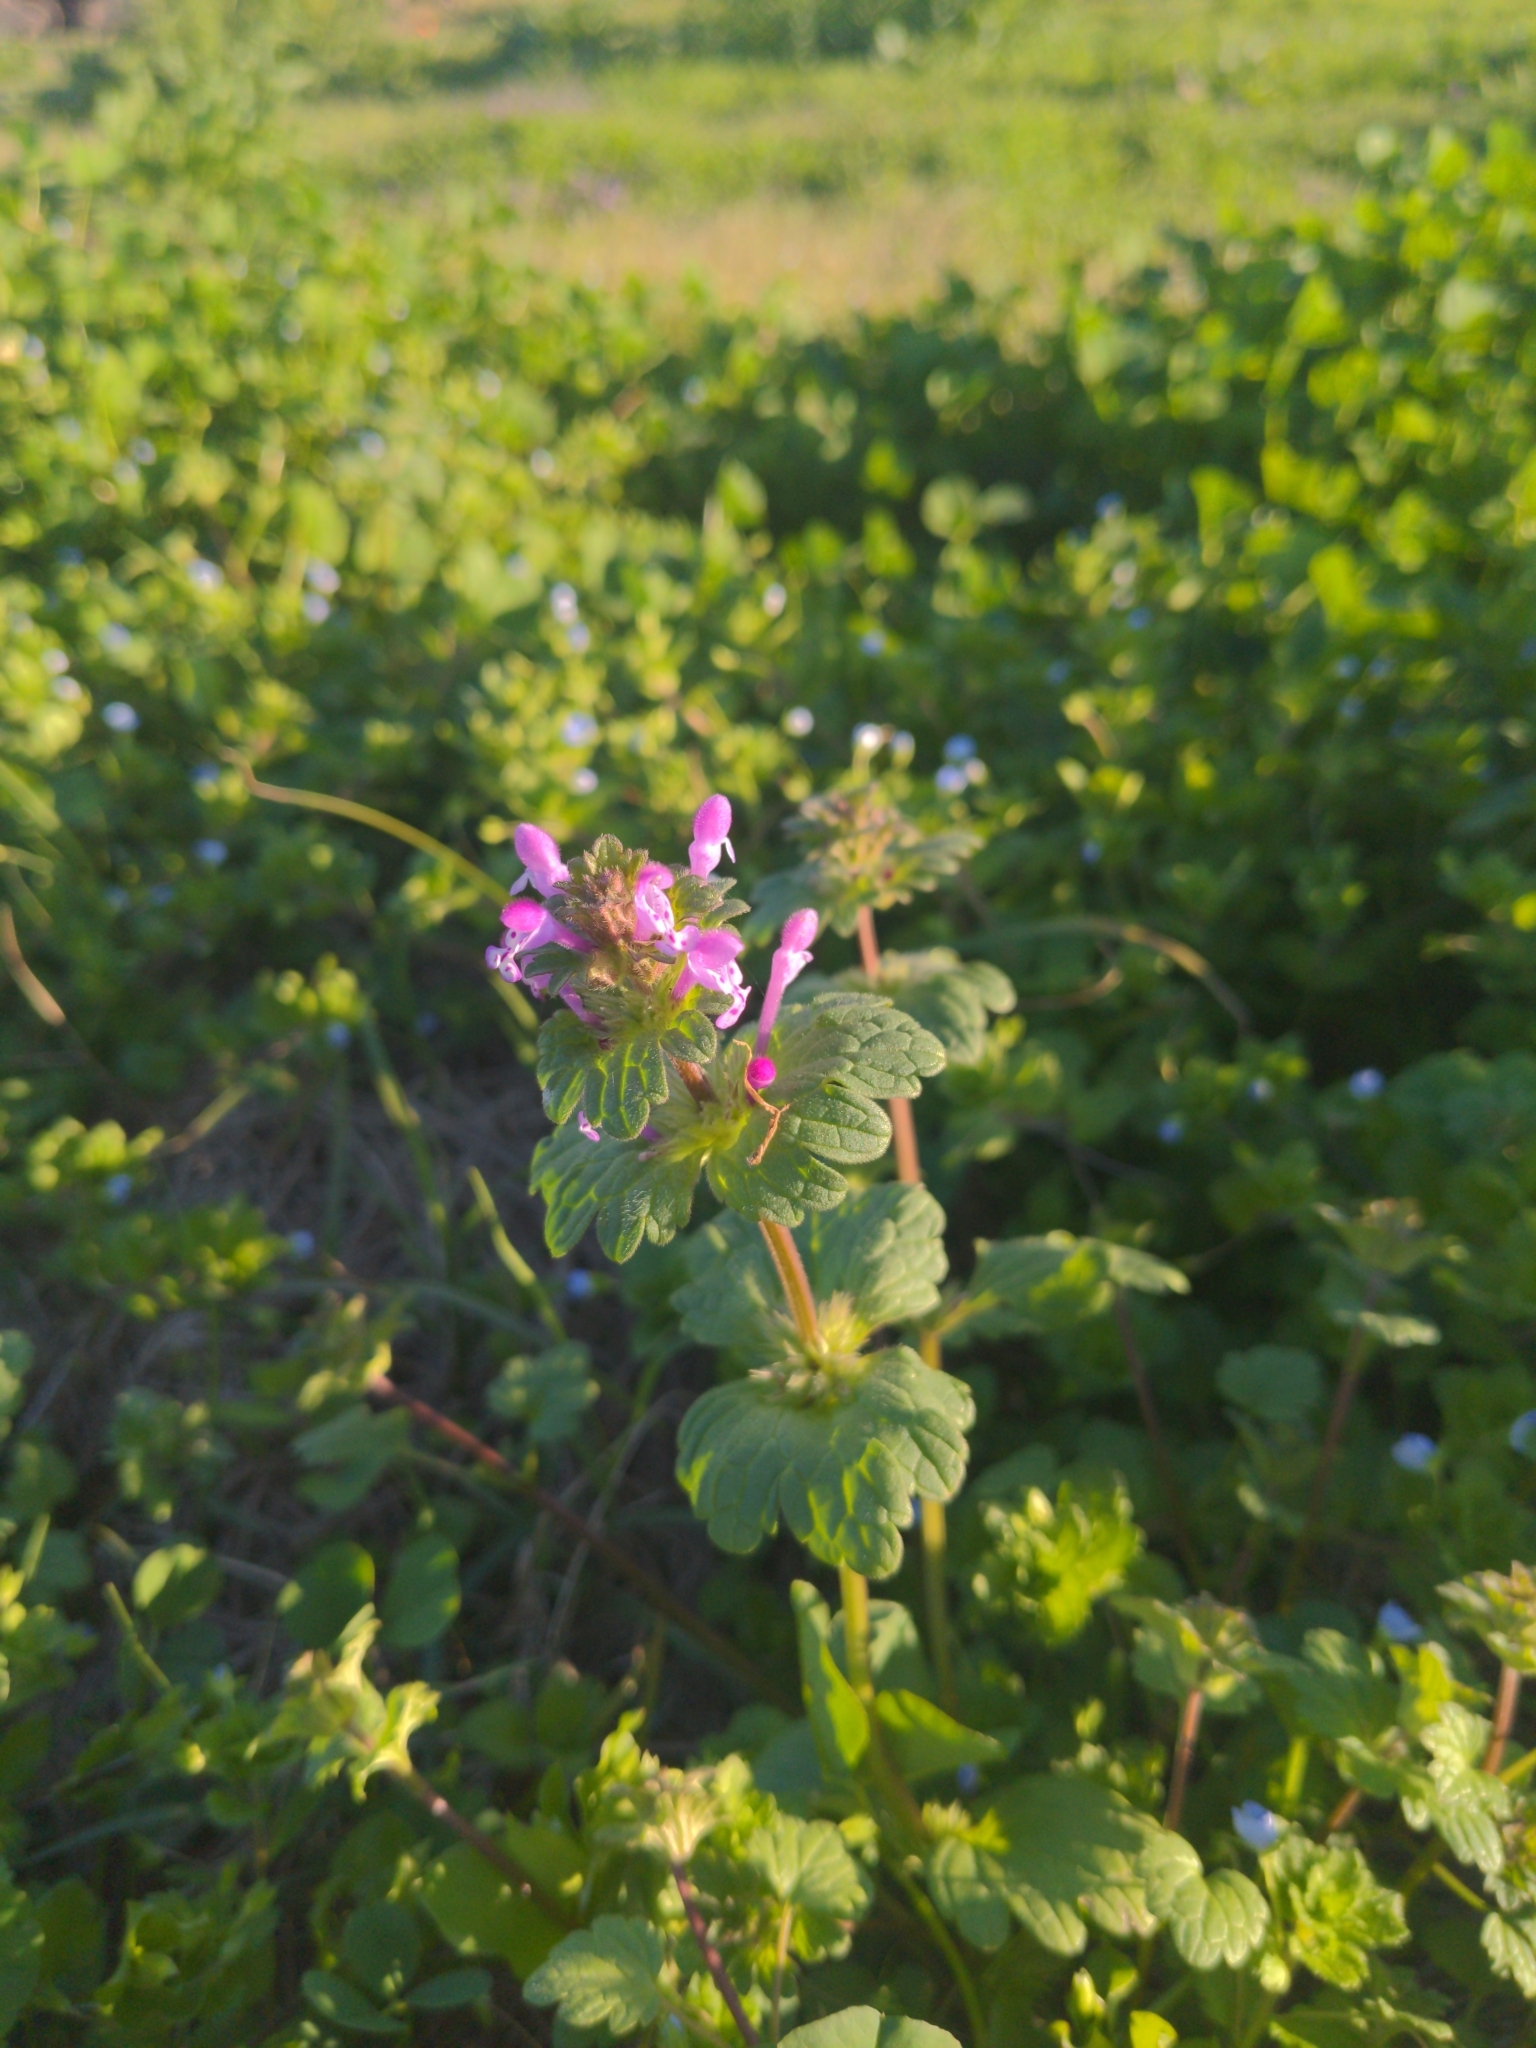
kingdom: Plantae
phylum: Tracheophyta
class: Magnoliopsida
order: Lamiales
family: Lamiaceae
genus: Lamium
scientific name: Lamium amplexicaule
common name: Henbit dead-nettle
